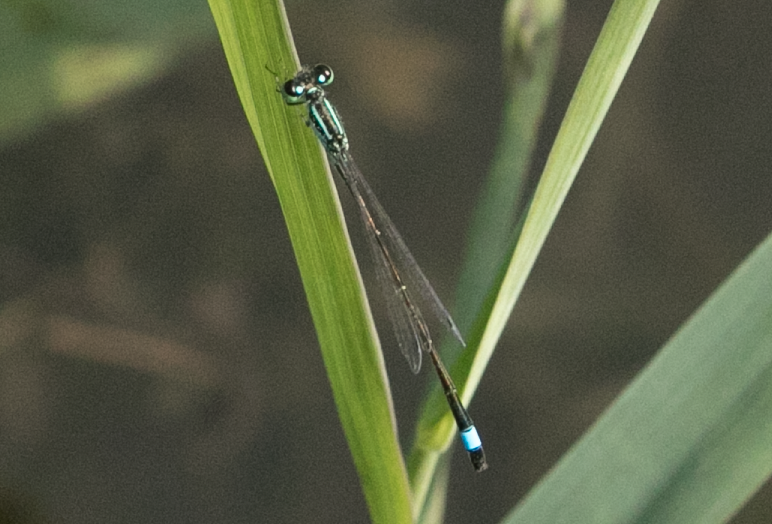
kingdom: Animalia
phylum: Arthropoda
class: Insecta
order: Odonata
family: Coenagrionidae
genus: Ischnura
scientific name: Ischnura elegans
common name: Blue-tailed damselfly
